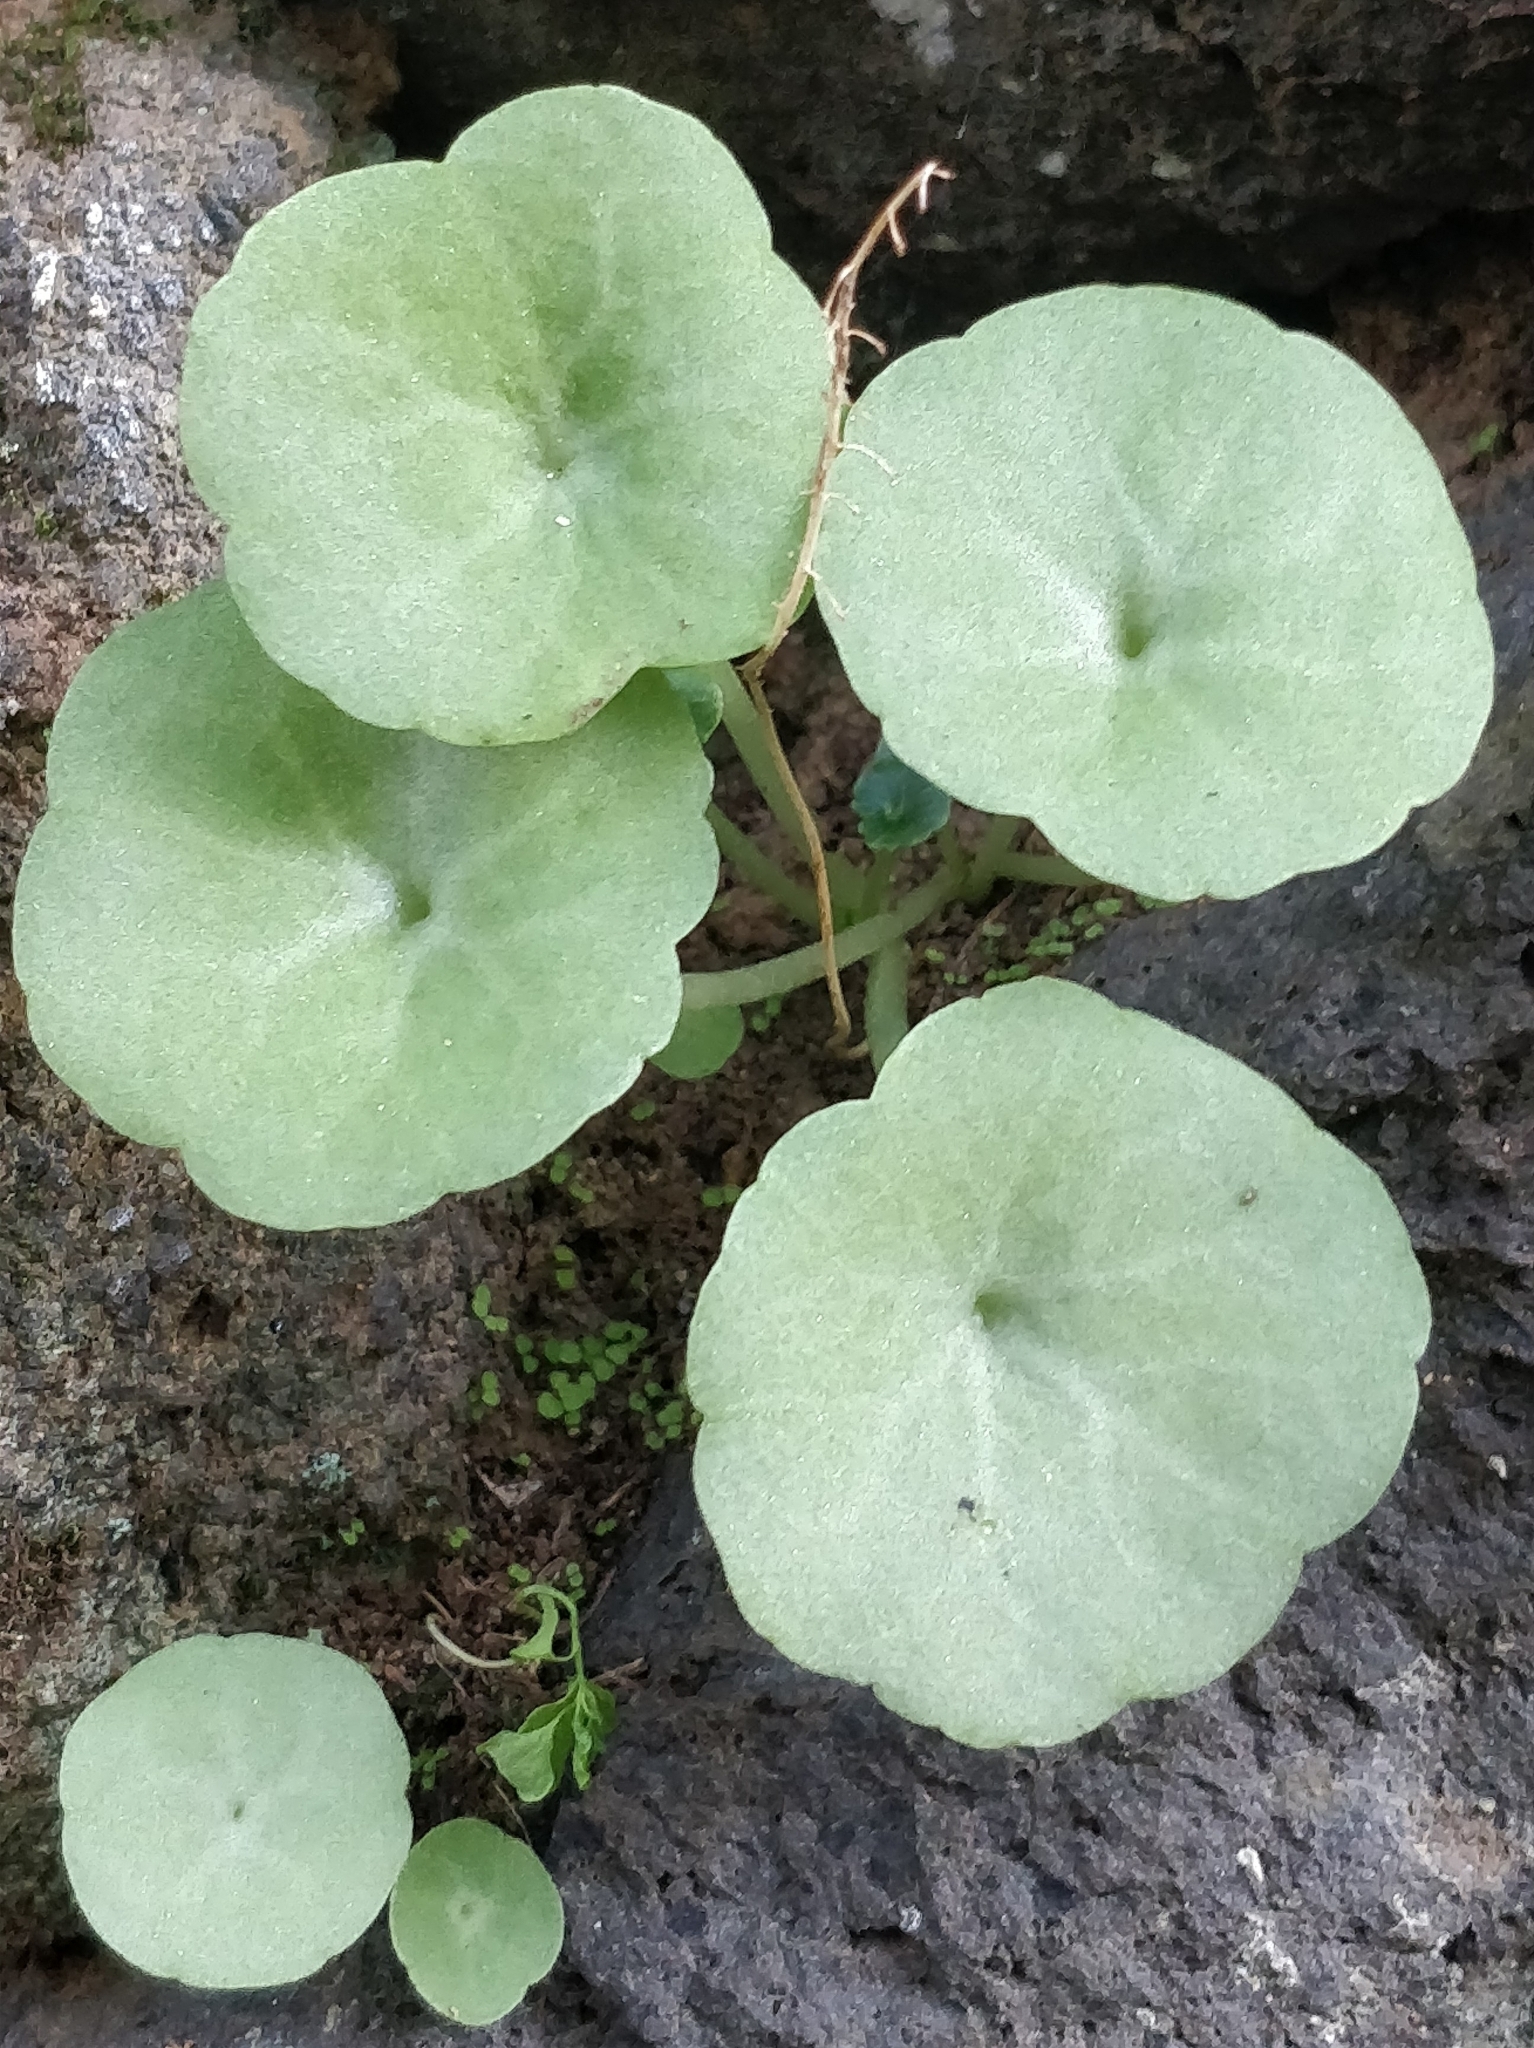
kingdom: Plantae
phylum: Tracheophyta
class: Magnoliopsida
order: Saxifragales
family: Crassulaceae
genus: Umbilicus
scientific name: Umbilicus rupestris
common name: Navelwort
